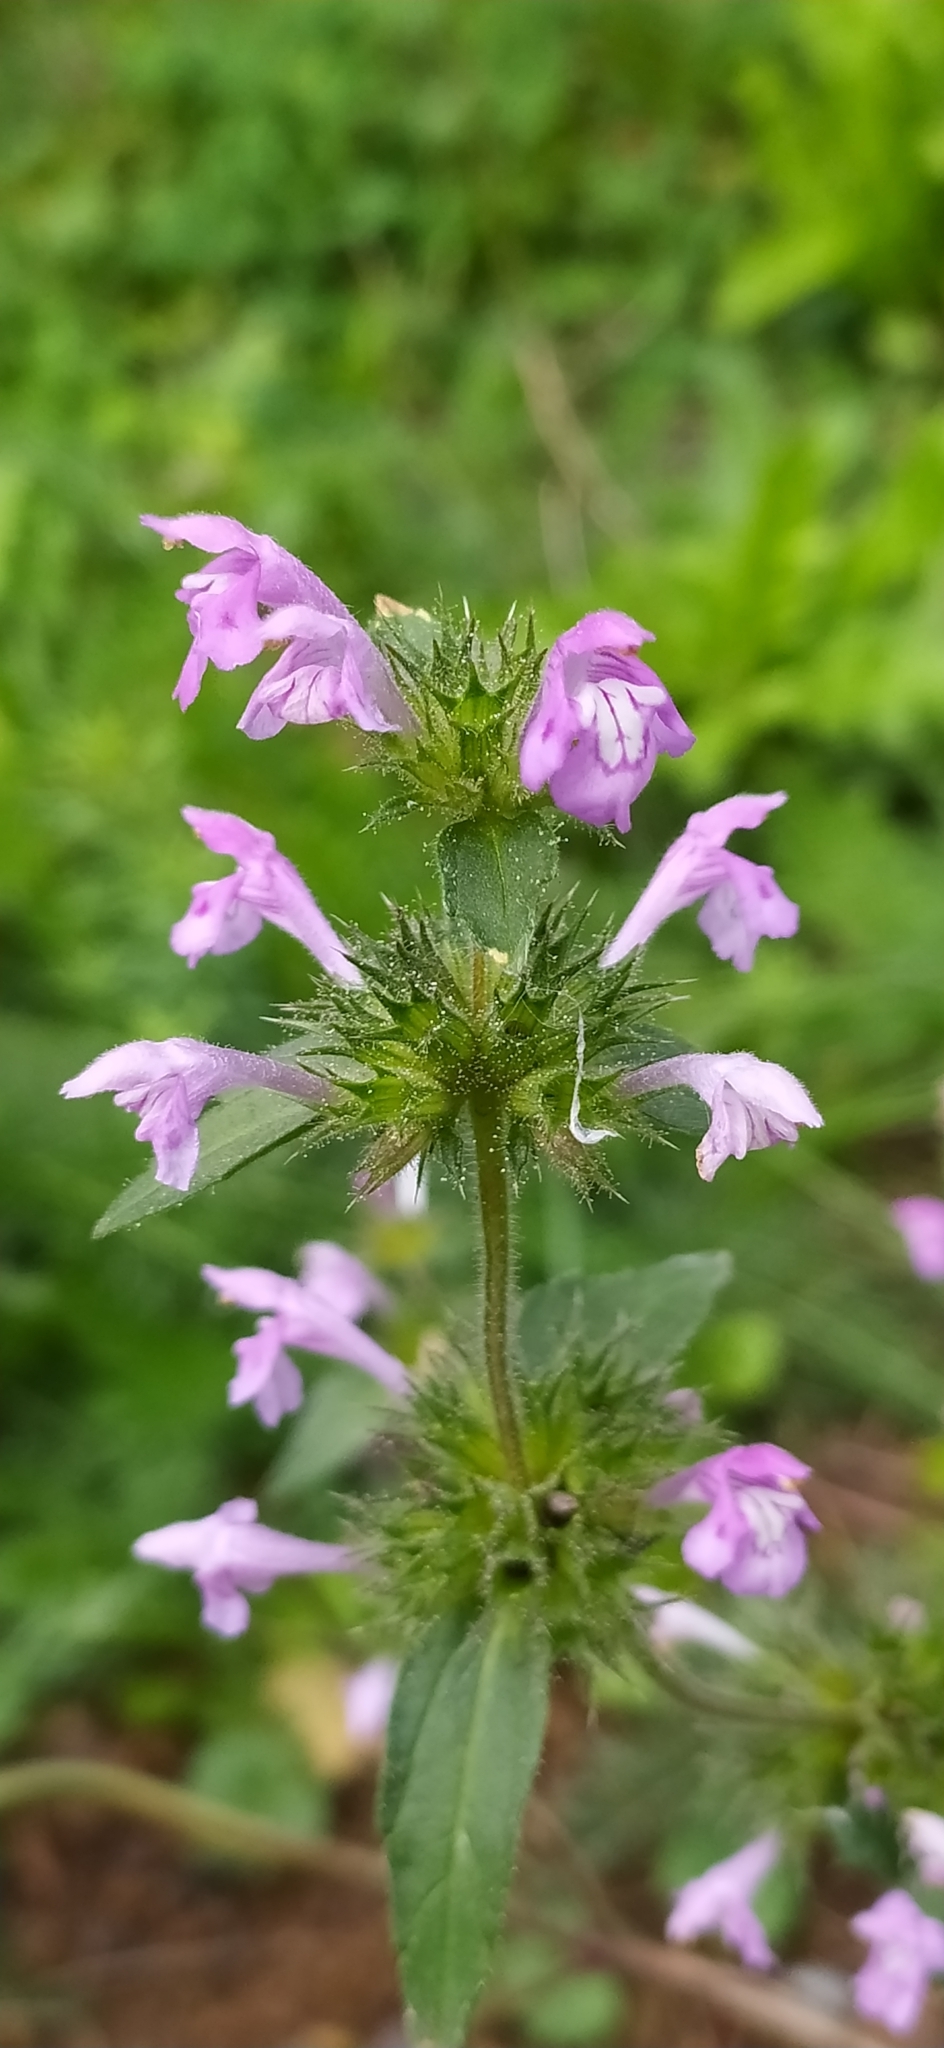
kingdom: Plantae
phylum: Tracheophyta
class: Magnoliopsida
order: Lamiales
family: Lamiaceae
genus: Galeopsis
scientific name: Galeopsis ladanum
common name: Broad-leaved hemp-nettle
